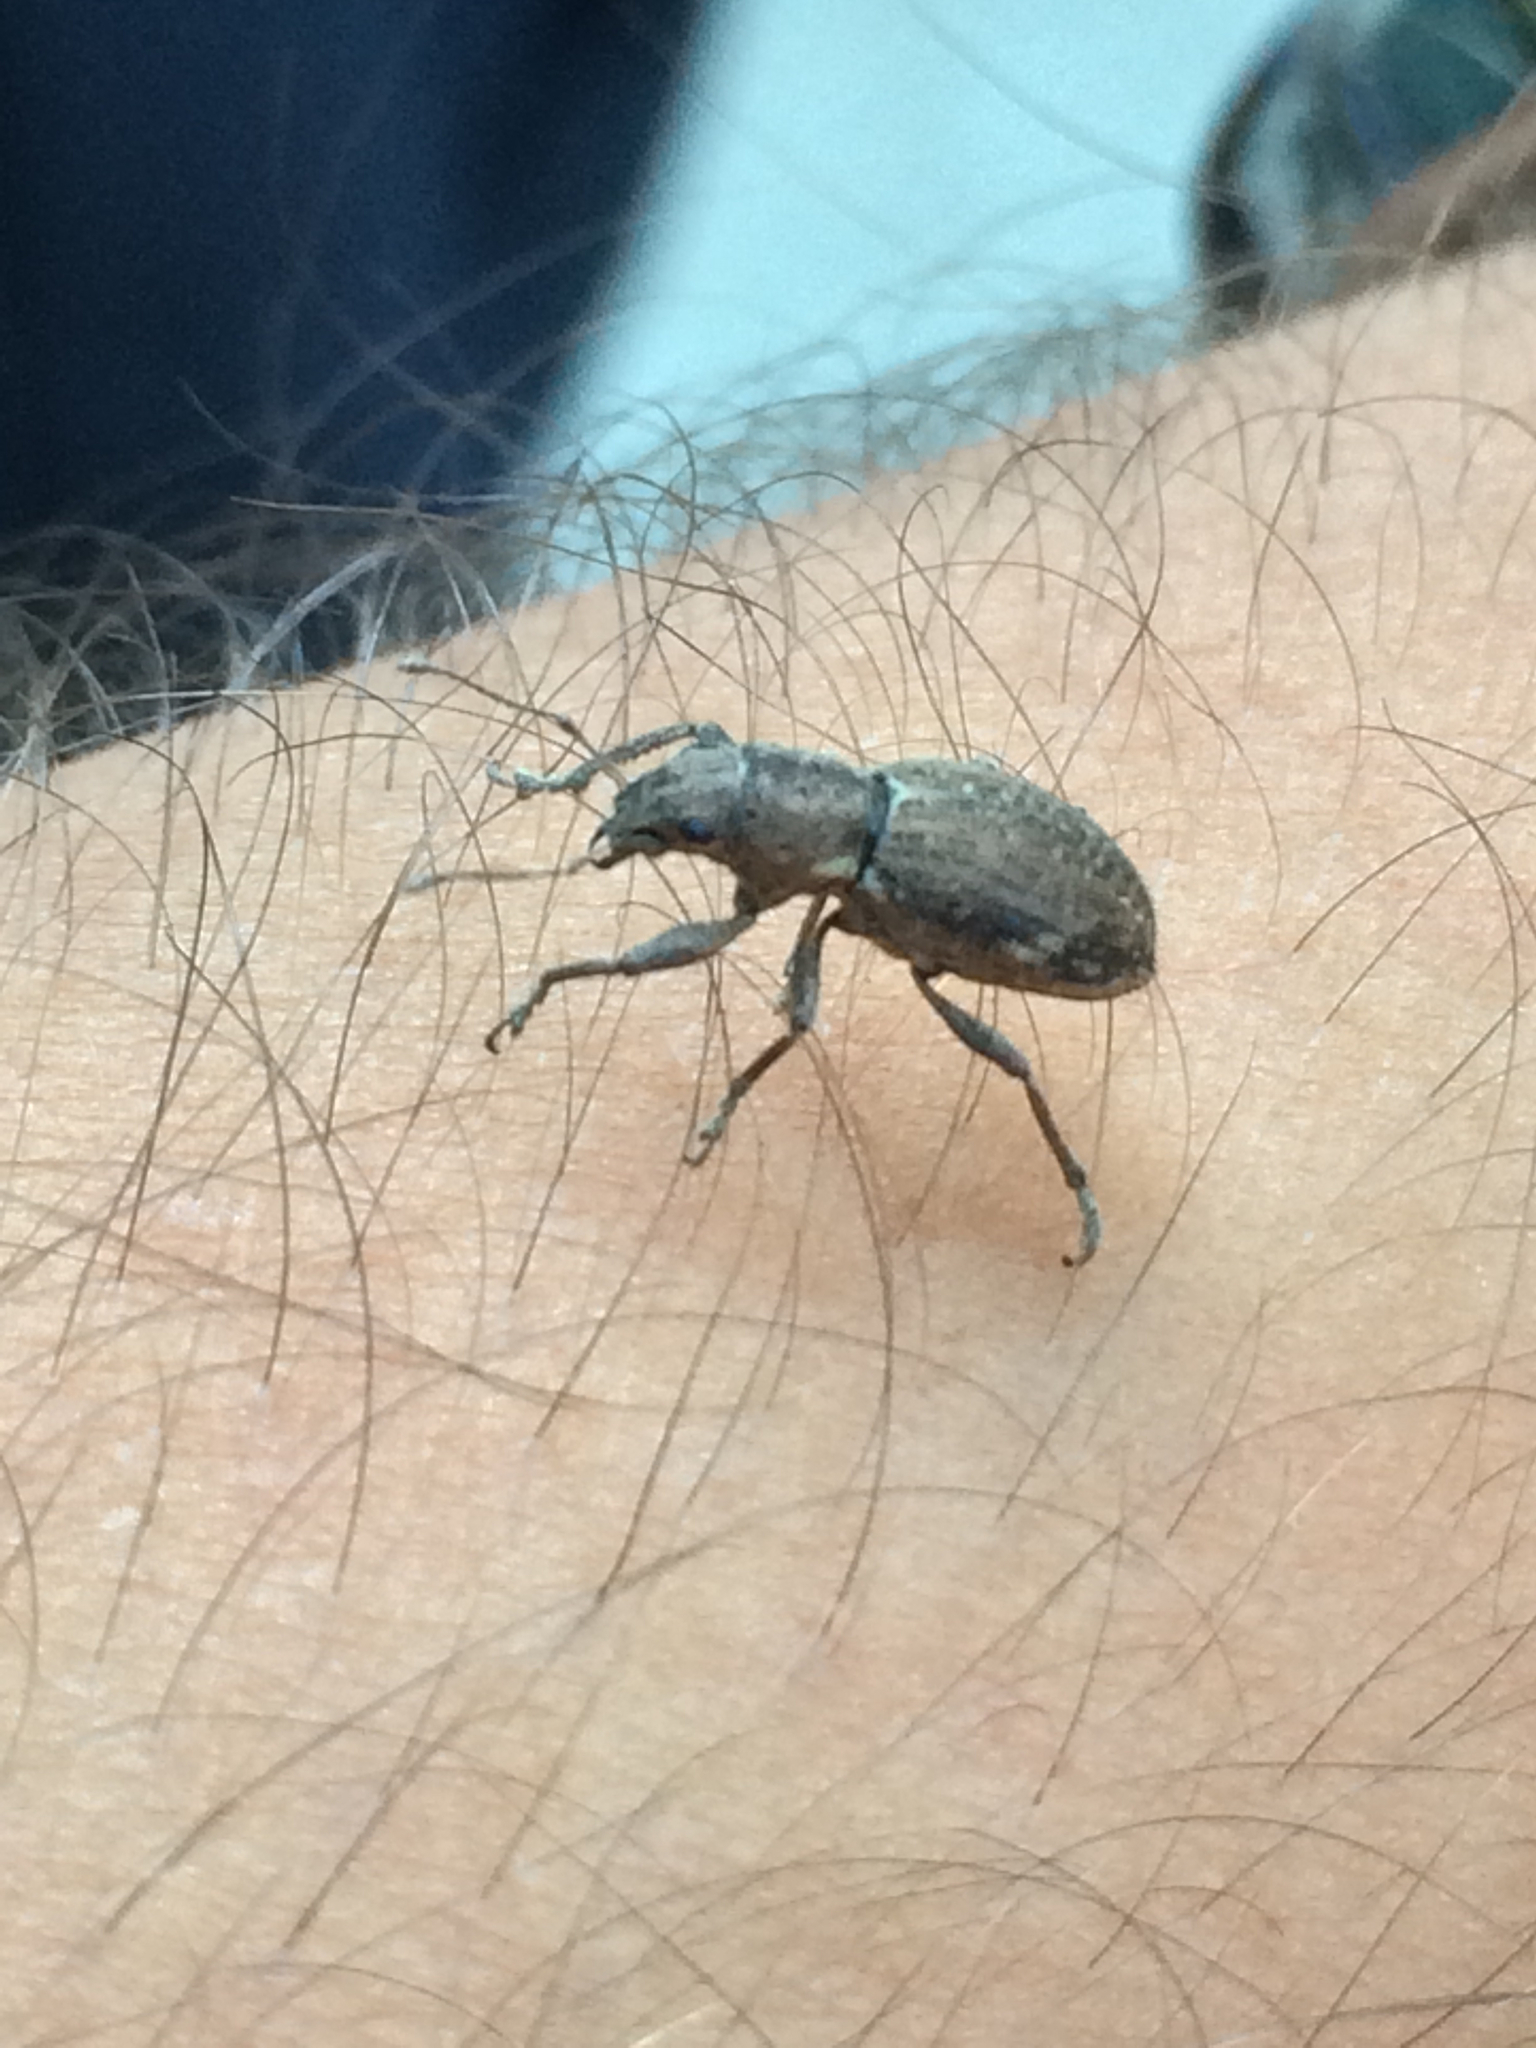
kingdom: Animalia
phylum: Arthropoda
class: Insecta
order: Coleoptera
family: Curculionidae
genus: Naupactus
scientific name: Naupactus cervinus
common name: Fuller rose beetle
